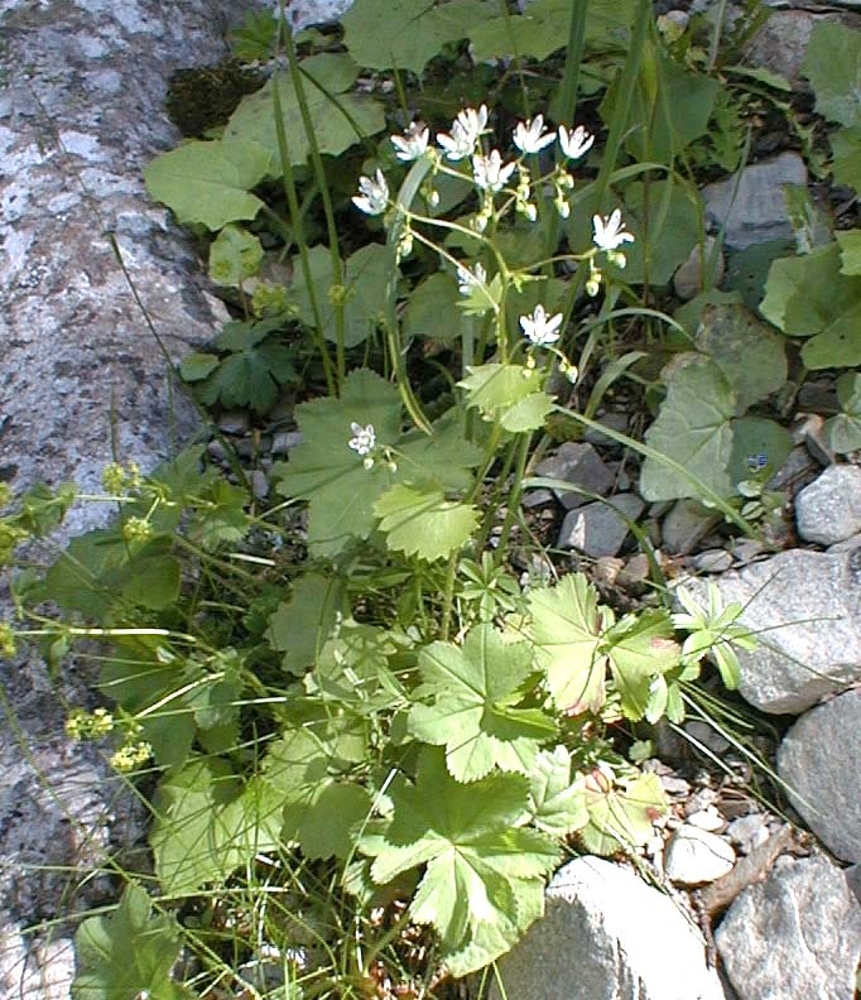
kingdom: Plantae
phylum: Tracheophyta
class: Magnoliopsida
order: Saxifragales
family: Saxifragaceae
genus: Saxifraga
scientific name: Saxifraga rotundifolia
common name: Round-leaved saxifrage
